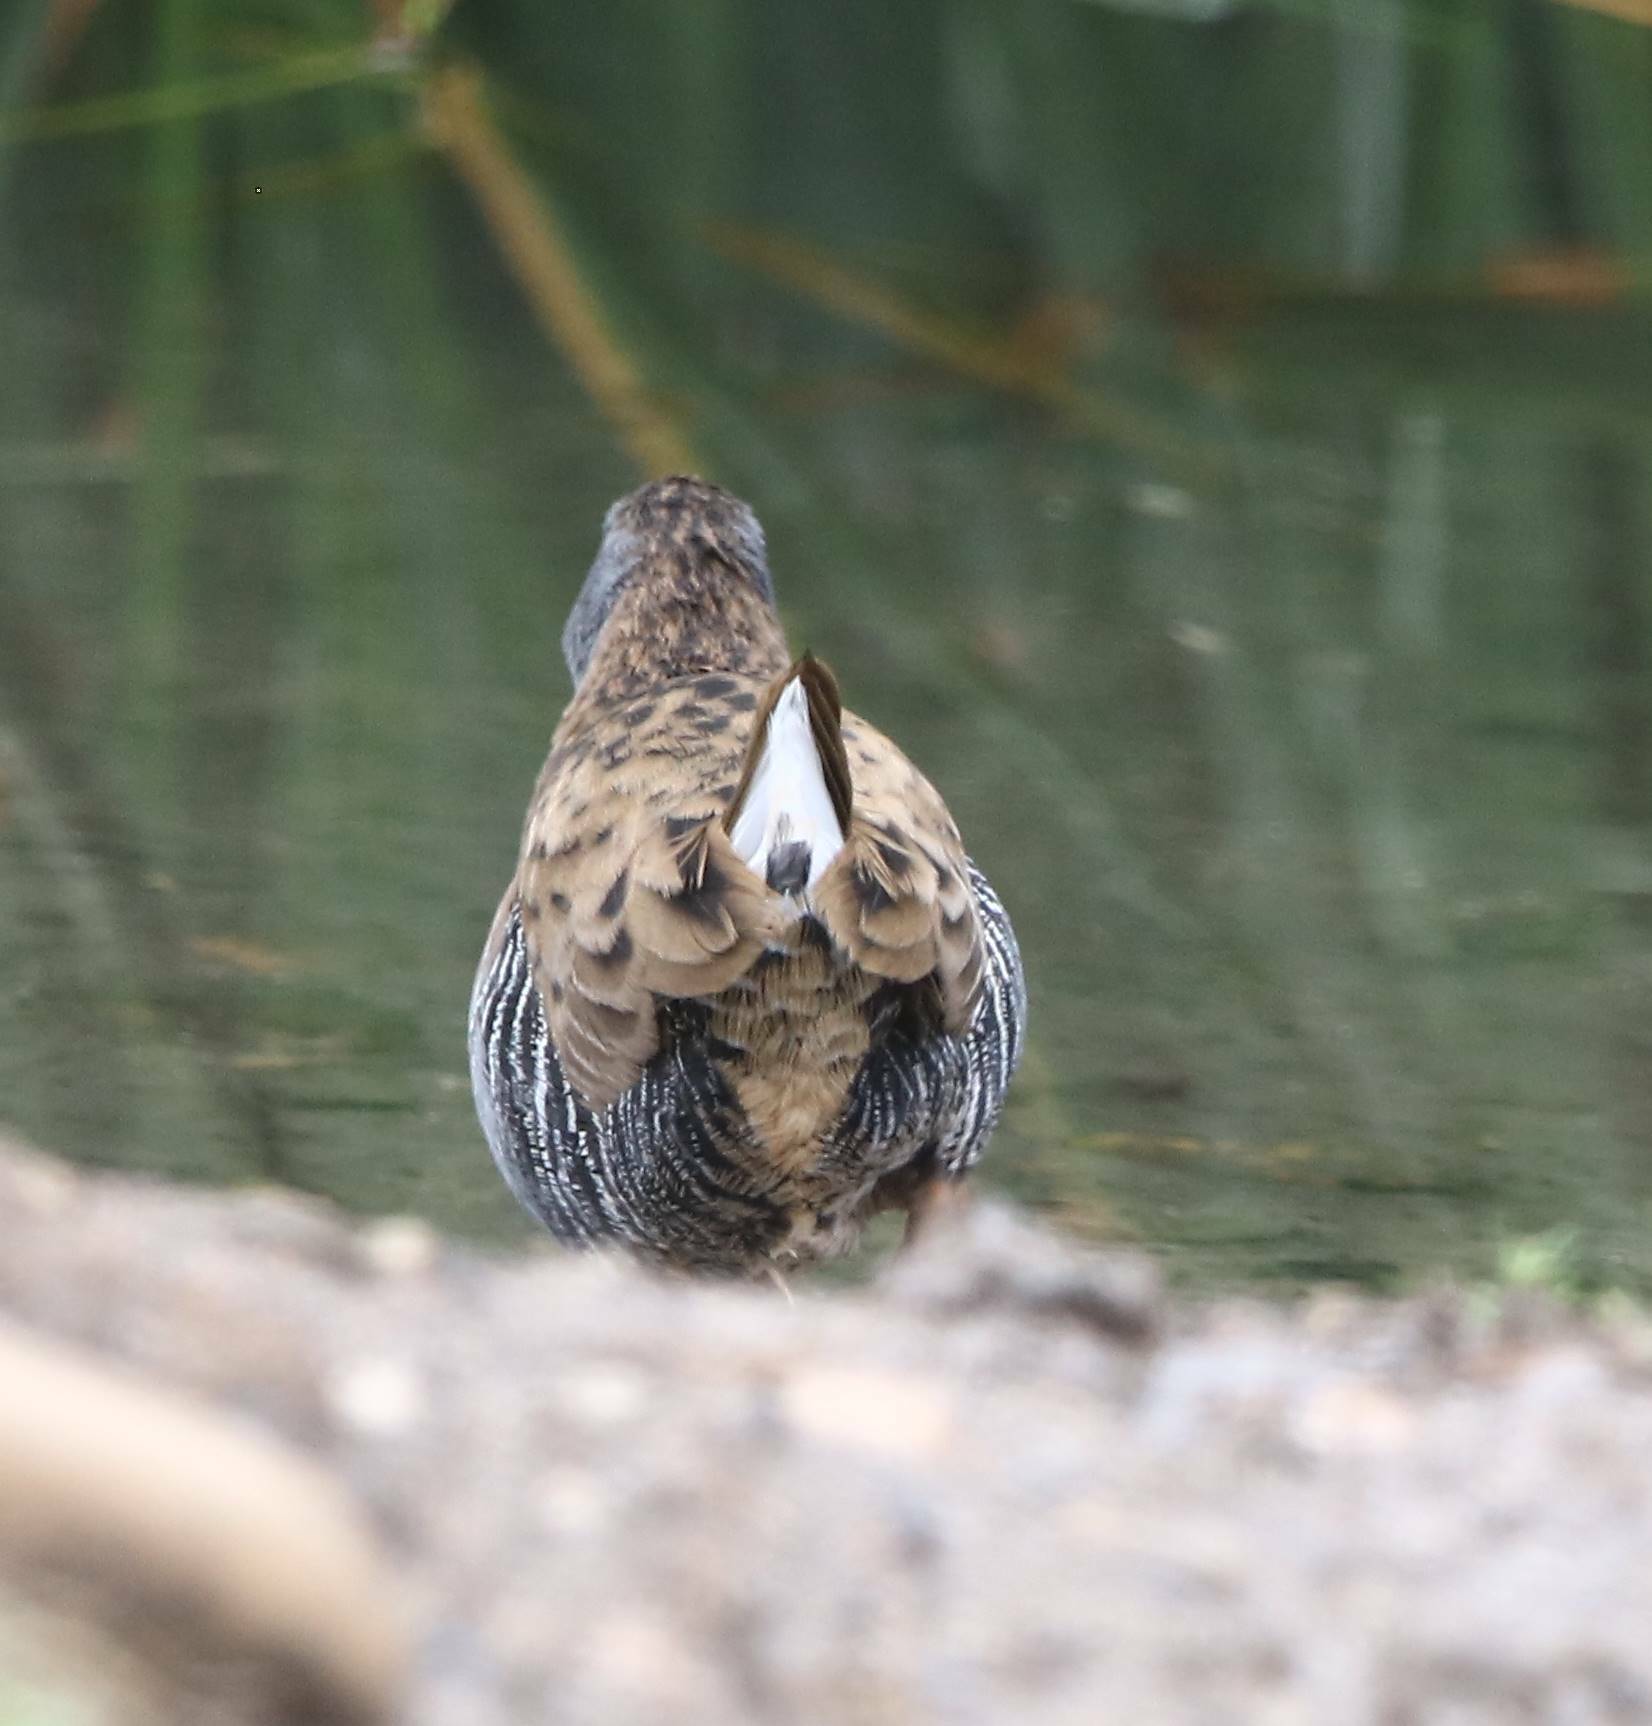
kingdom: Animalia
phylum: Chordata
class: Aves
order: Gruiformes
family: Rallidae
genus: Rallus
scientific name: Rallus aquaticus
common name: Water rail
